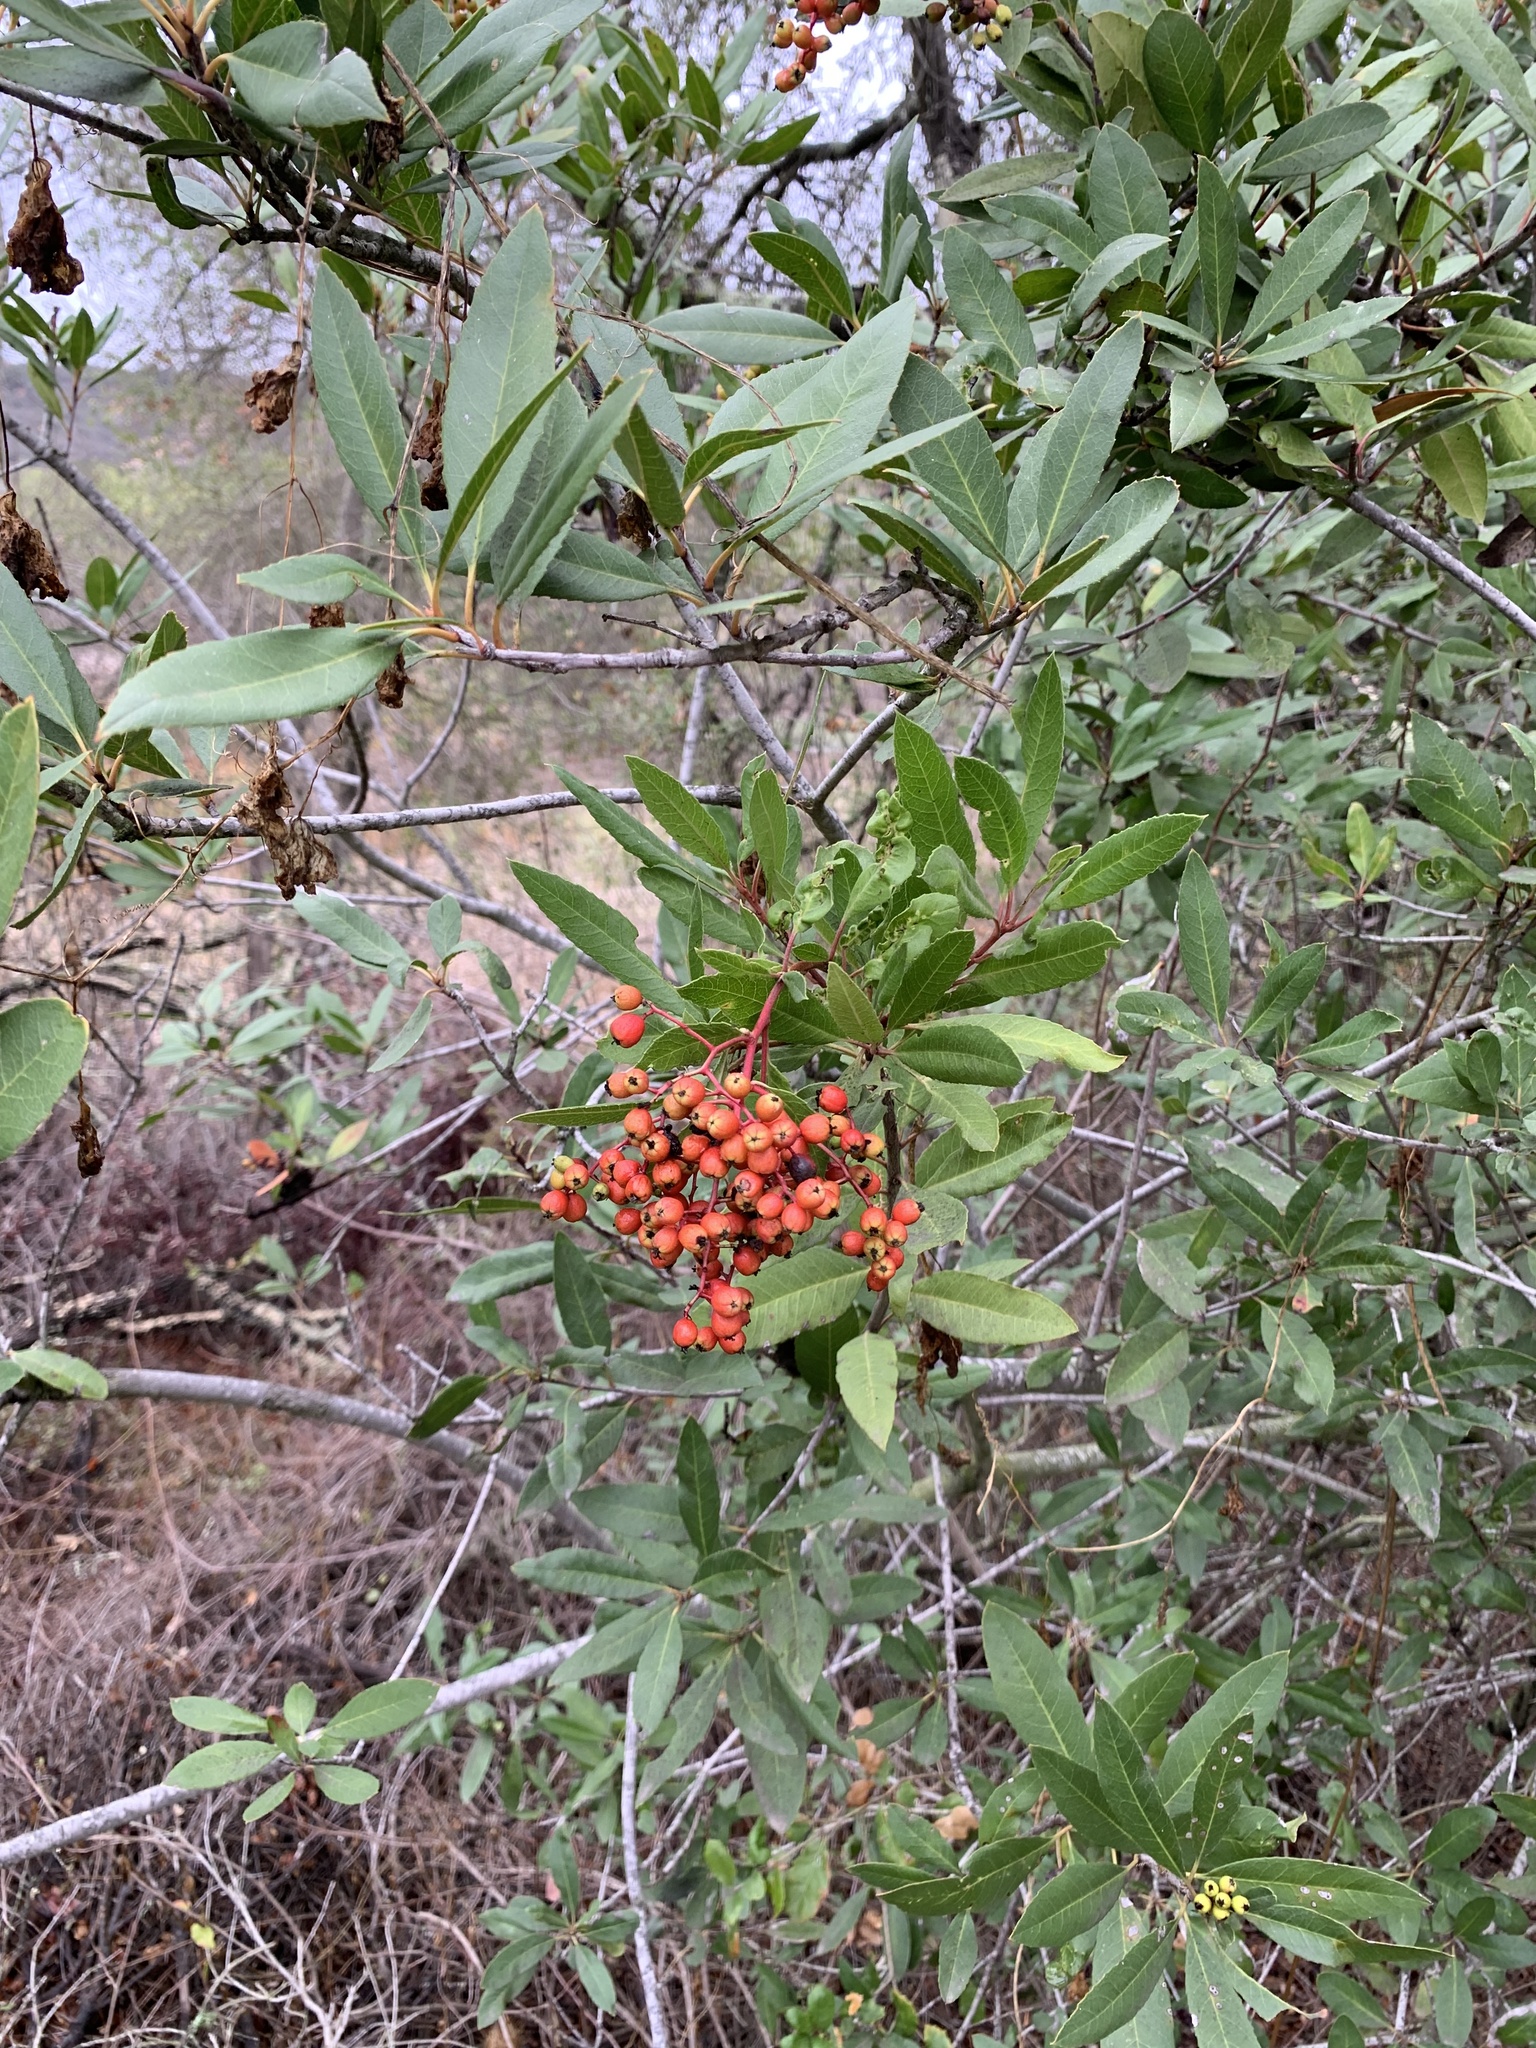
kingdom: Plantae
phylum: Tracheophyta
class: Magnoliopsida
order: Rosales
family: Rosaceae
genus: Heteromeles
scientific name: Heteromeles arbutifolia
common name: California-holly
